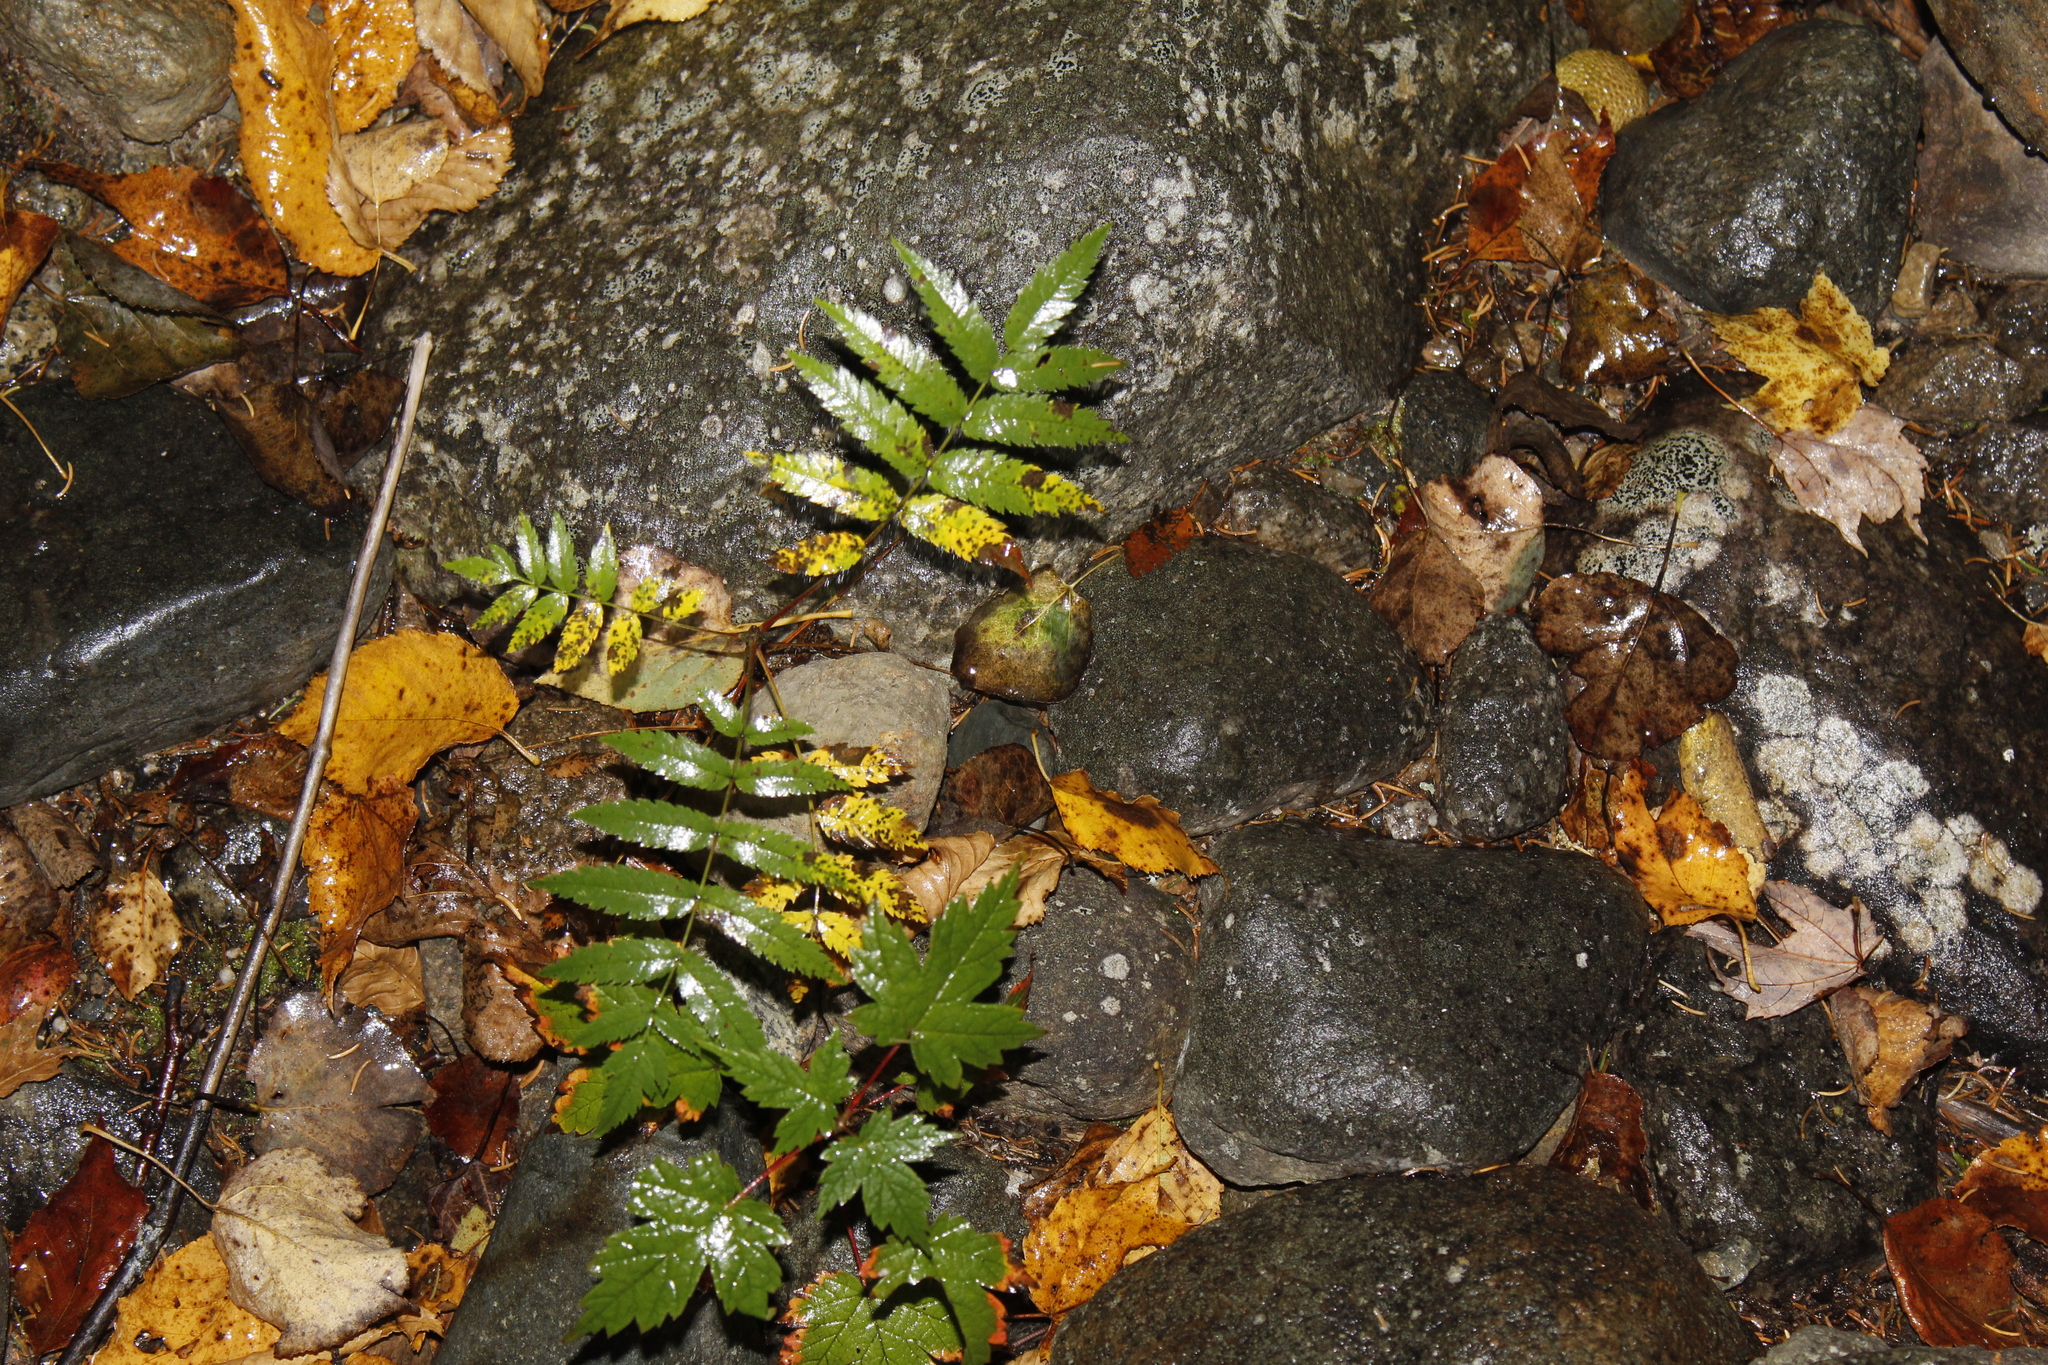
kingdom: Plantae
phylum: Tracheophyta
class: Magnoliopsida
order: Rosales
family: Rosaceae
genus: Sorbus
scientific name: Sorbus americana
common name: American mountain-ash
